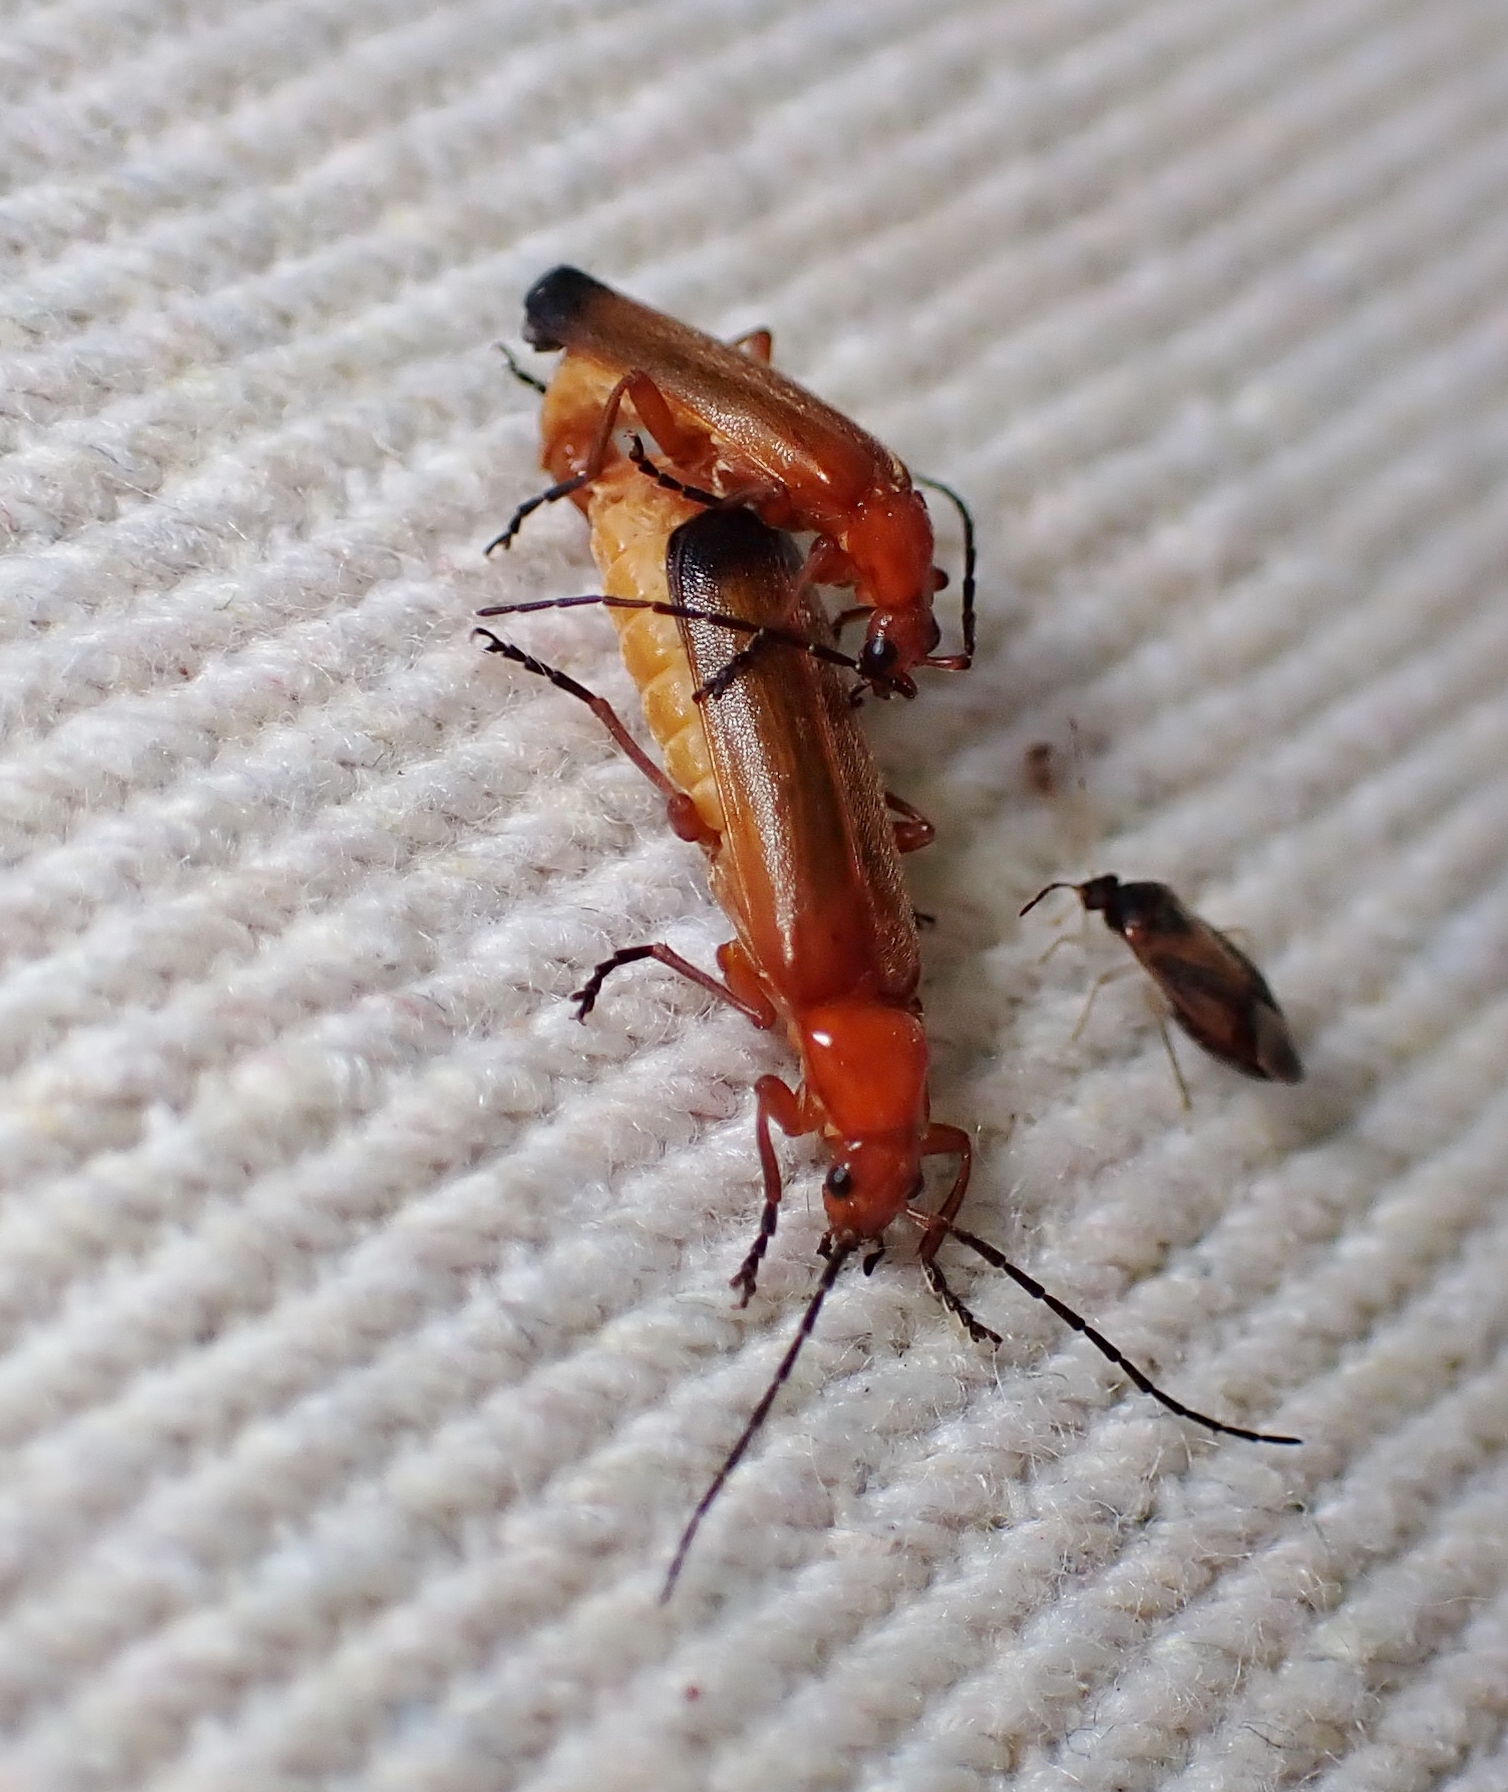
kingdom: Animalia
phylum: Arthropoda
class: Insecta
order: Coleoptera
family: Cantharidae
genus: Rhagonycha
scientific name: Rhagonycha fulva
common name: Common red soldier beetle
